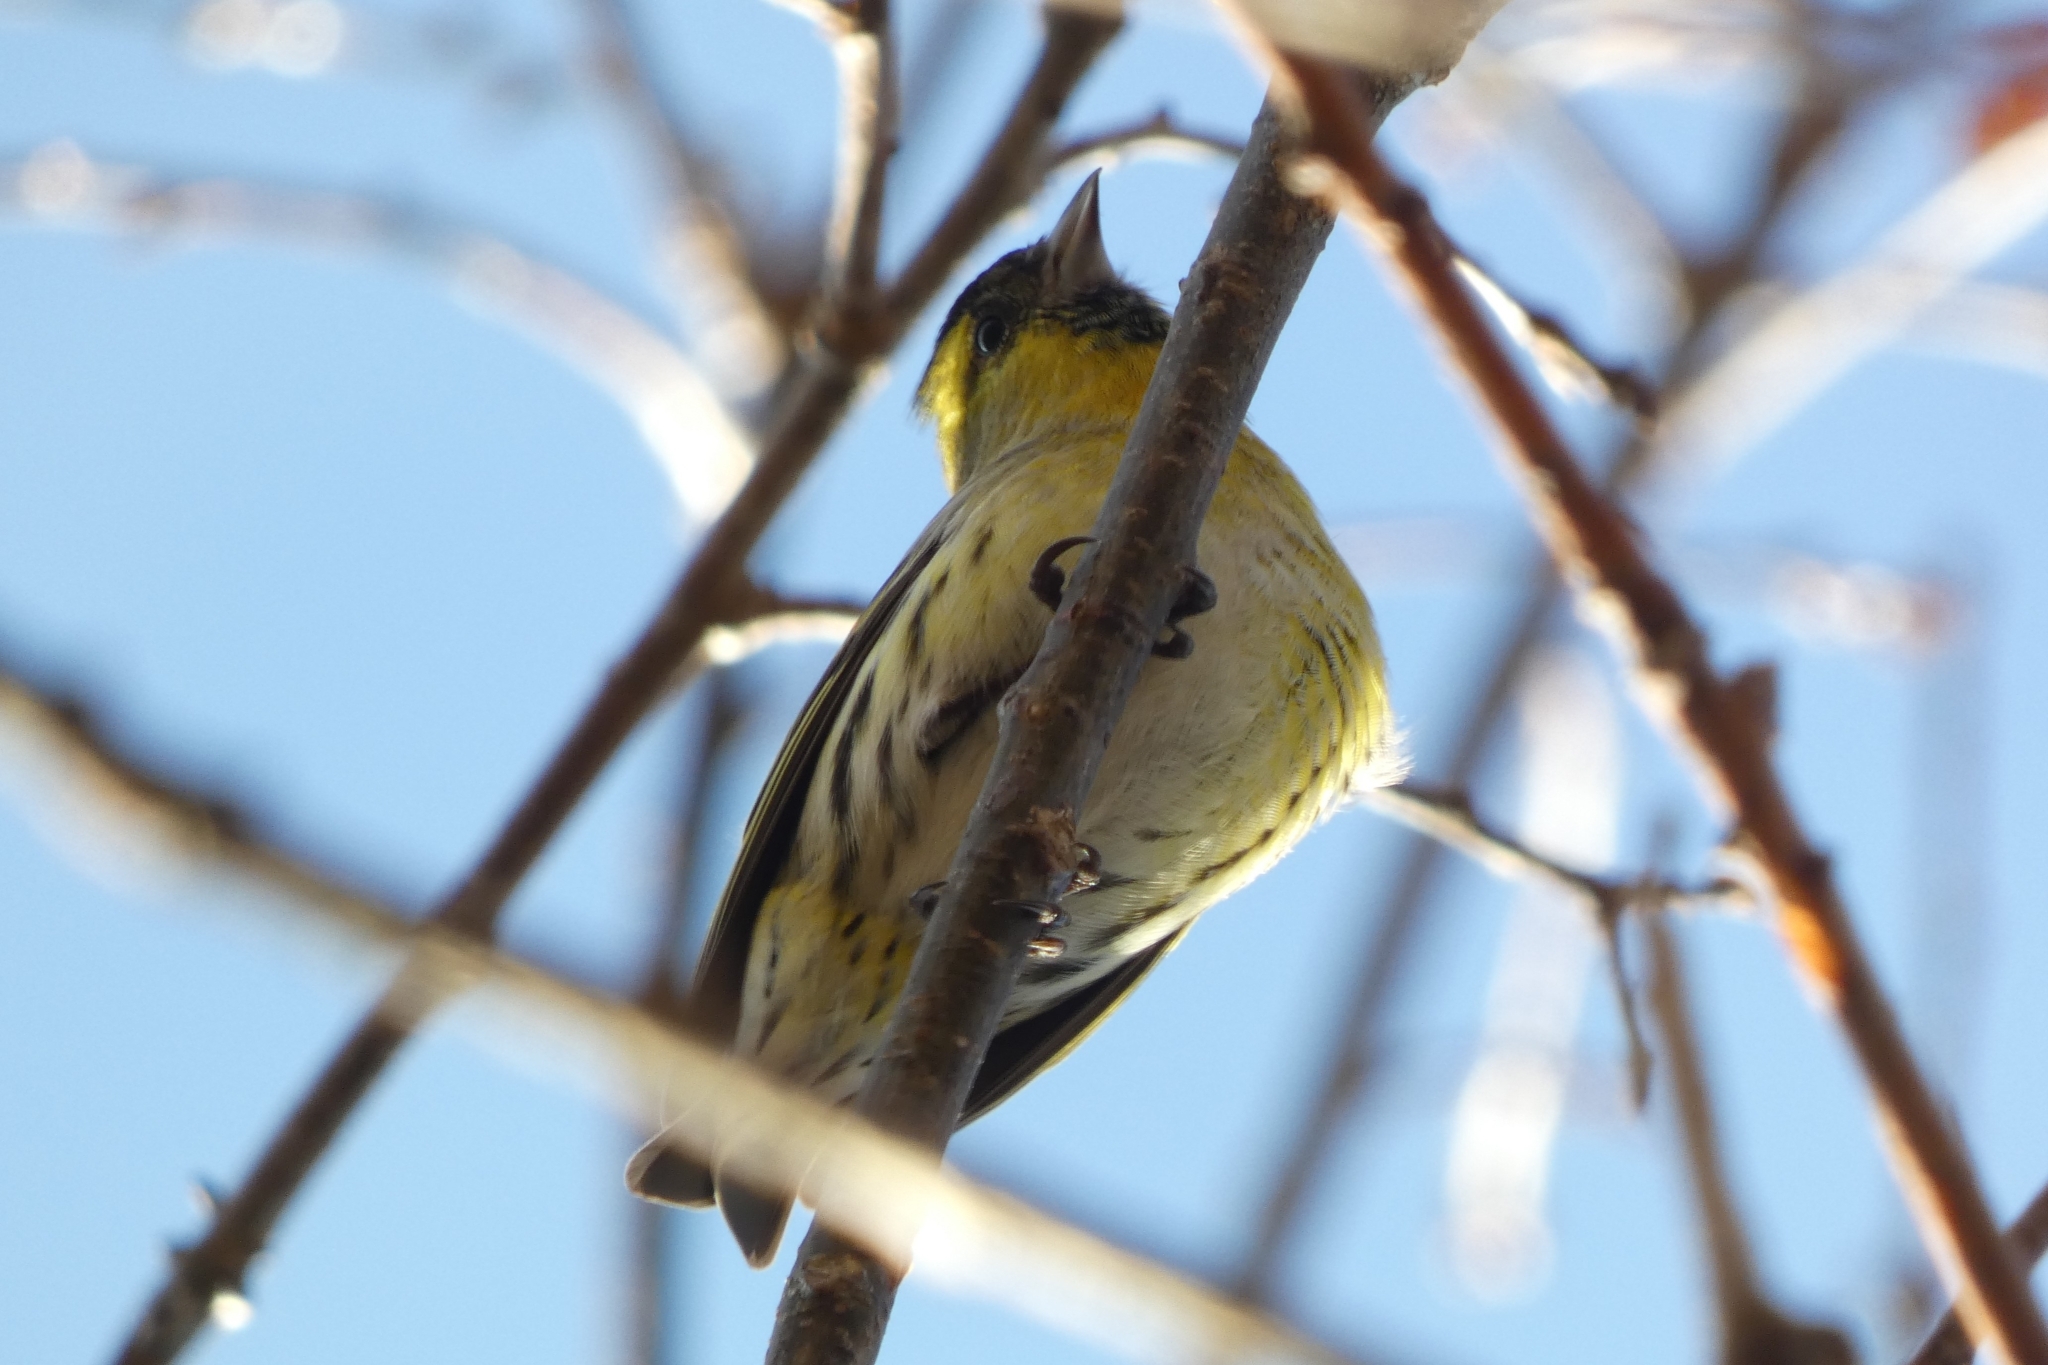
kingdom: Animalia
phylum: Chordata
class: Aves
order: Passeriformes
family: Fringillidae
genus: Spinus
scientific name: Spinus spinus
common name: Eurasian siskin
